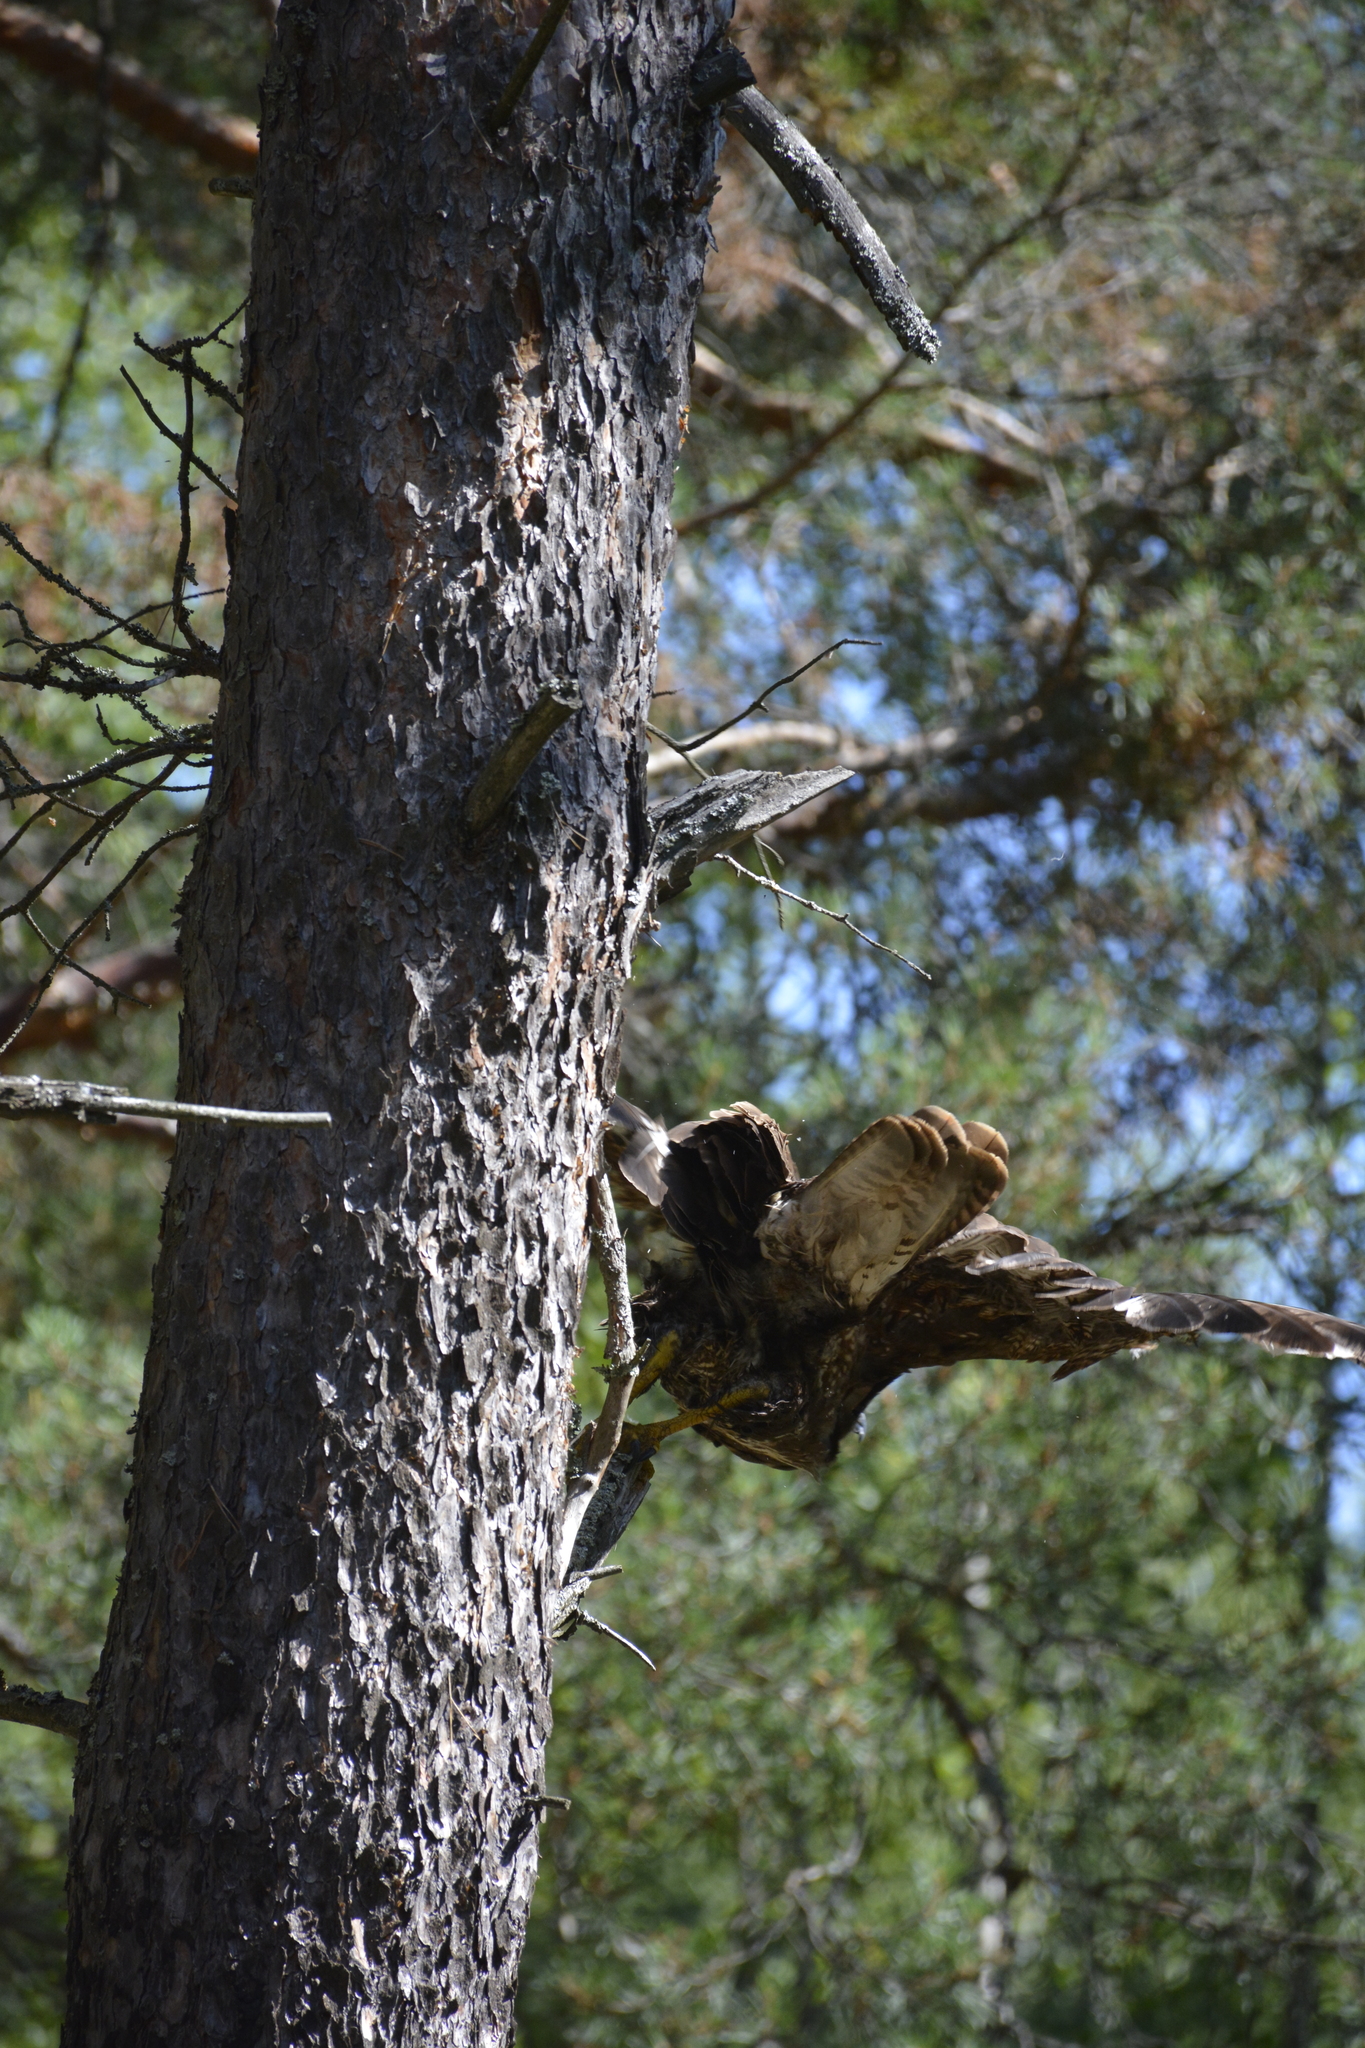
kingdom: Animalia
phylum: Chordata
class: Aves
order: Accipitriformes
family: Accipitridae
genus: Buteo
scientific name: Buteo buteo
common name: Common buzzard
